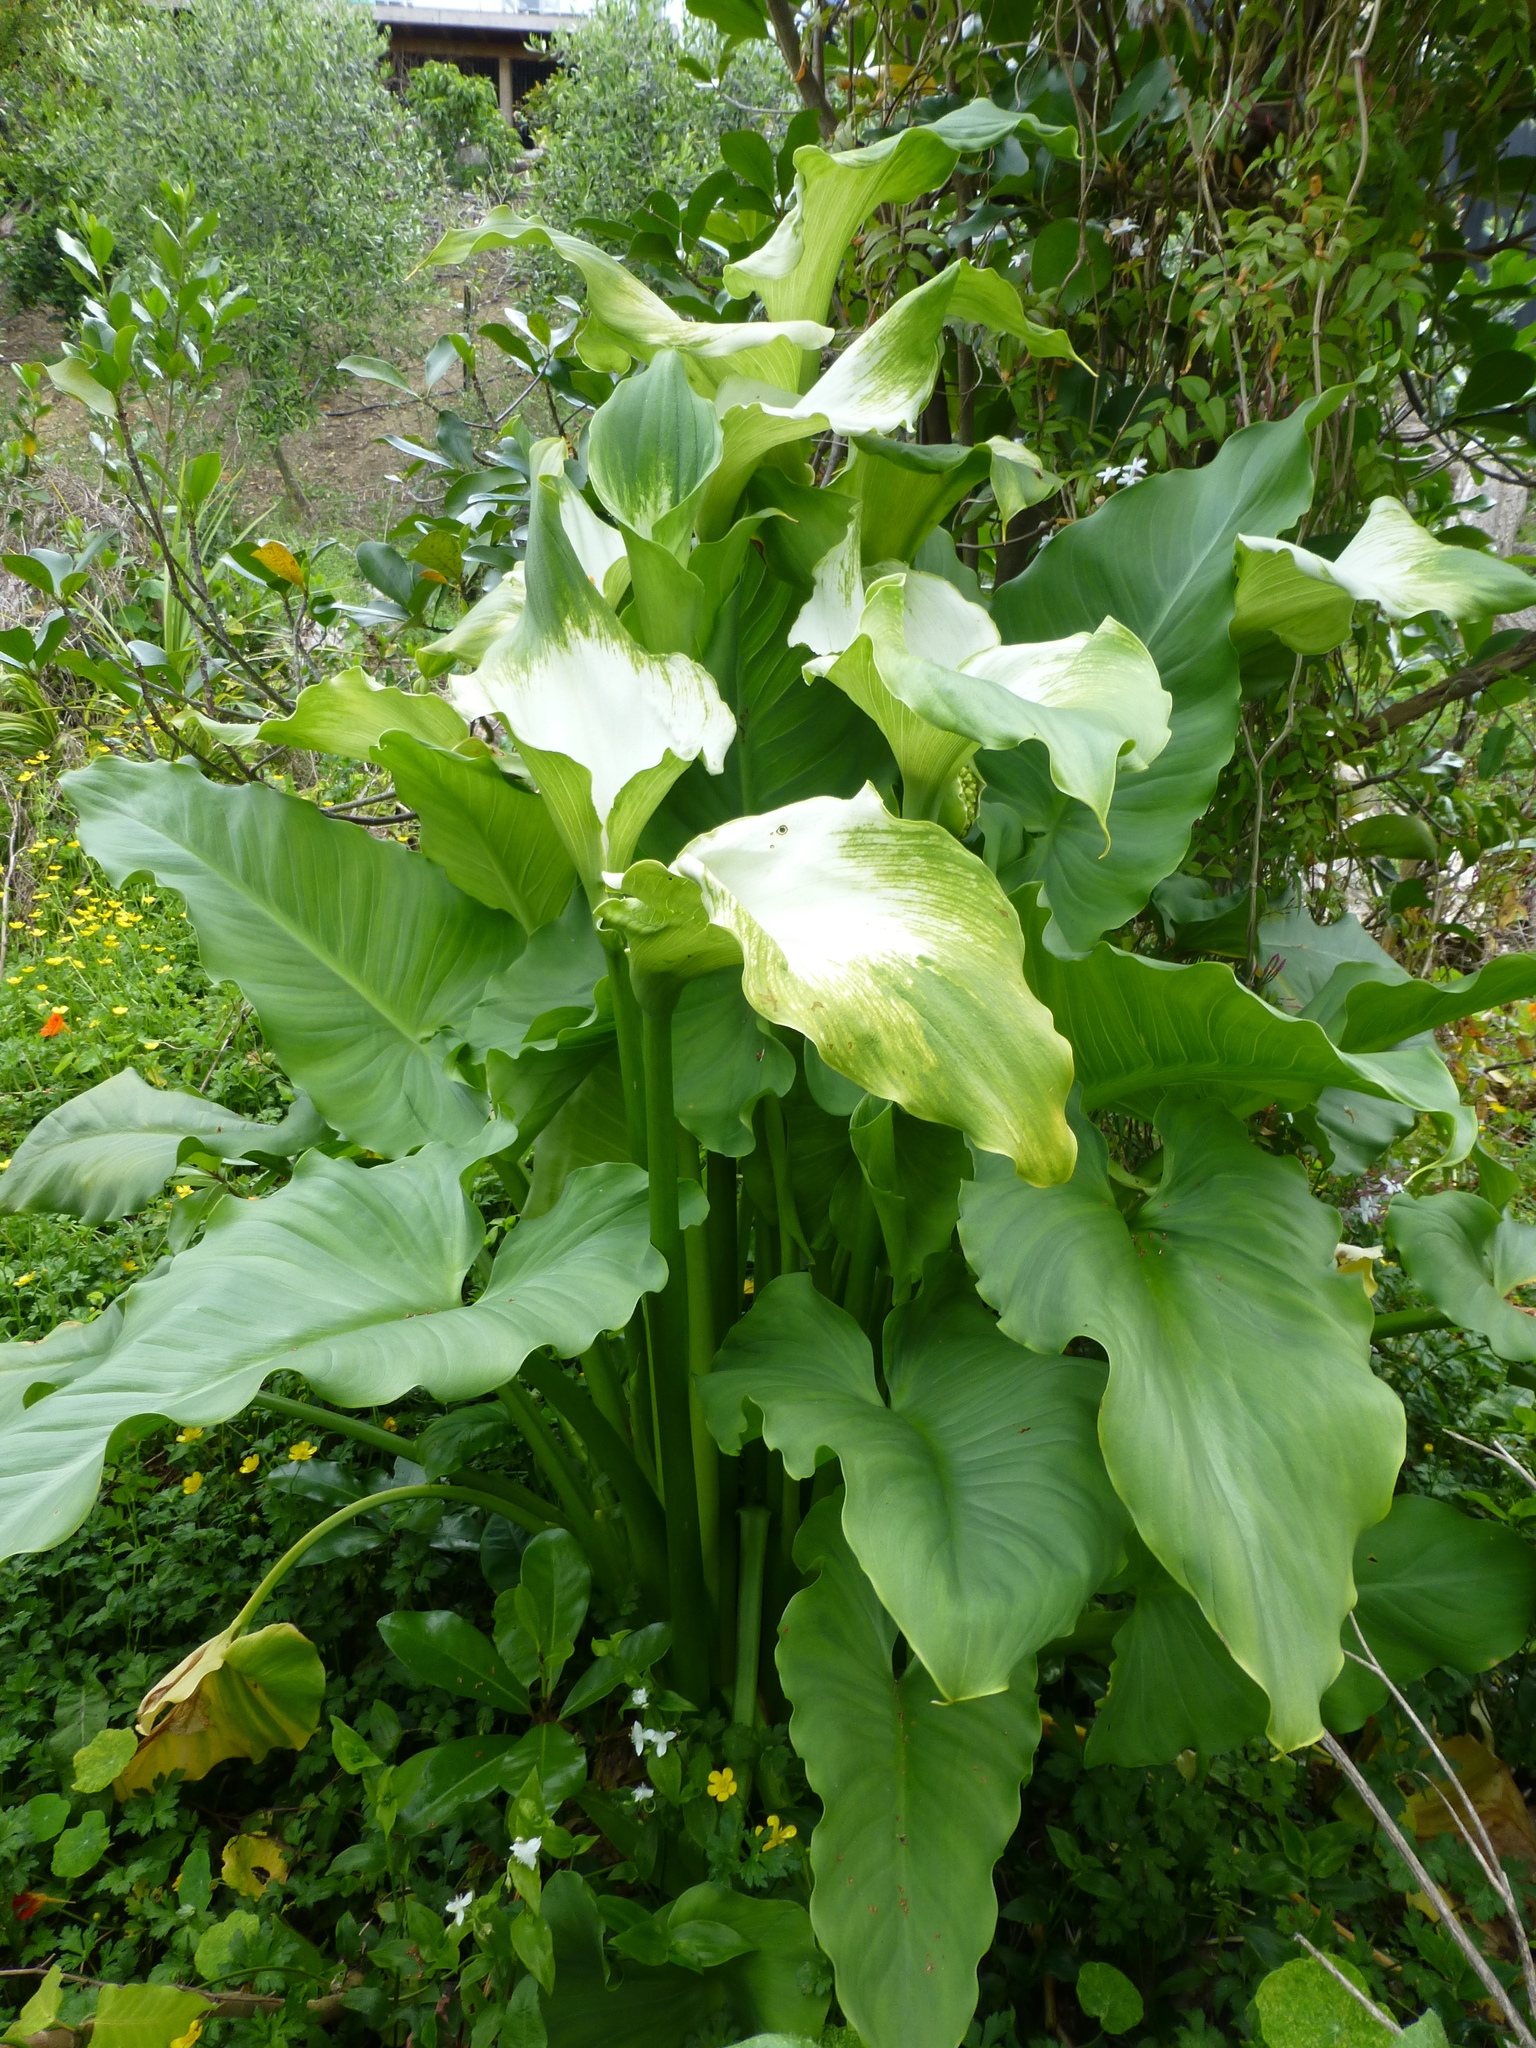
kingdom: Plantae
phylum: Tracheophyta
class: Liliopsida
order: Alismatales
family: Araceae
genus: Zantedeschia
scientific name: Zantedeschia aethiopica
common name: Altar-lily
